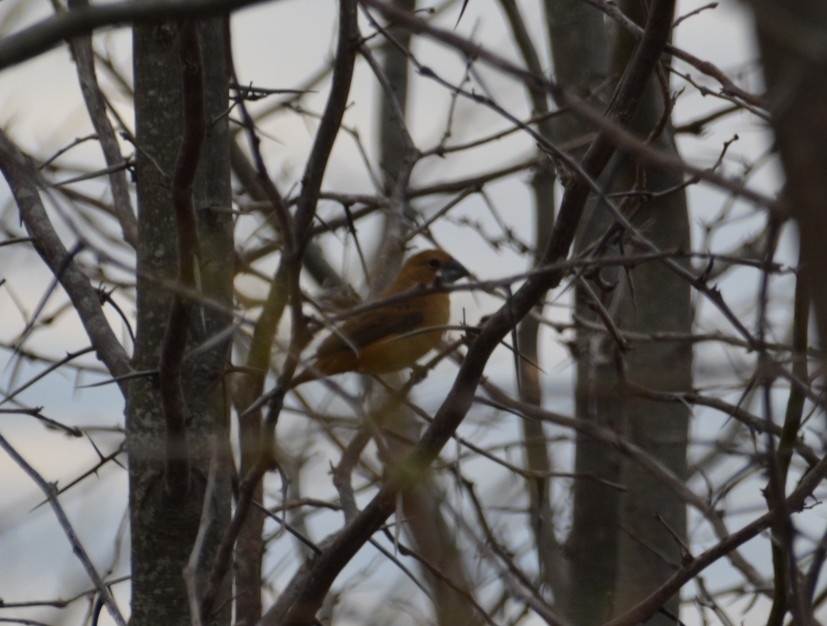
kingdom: Animalia
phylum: Chordata
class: Aves
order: Passeriformes
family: Cardinalidae
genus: Cyanoloxia
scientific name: Cyanoloxia brissonii
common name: Ultramarine grosbeak
